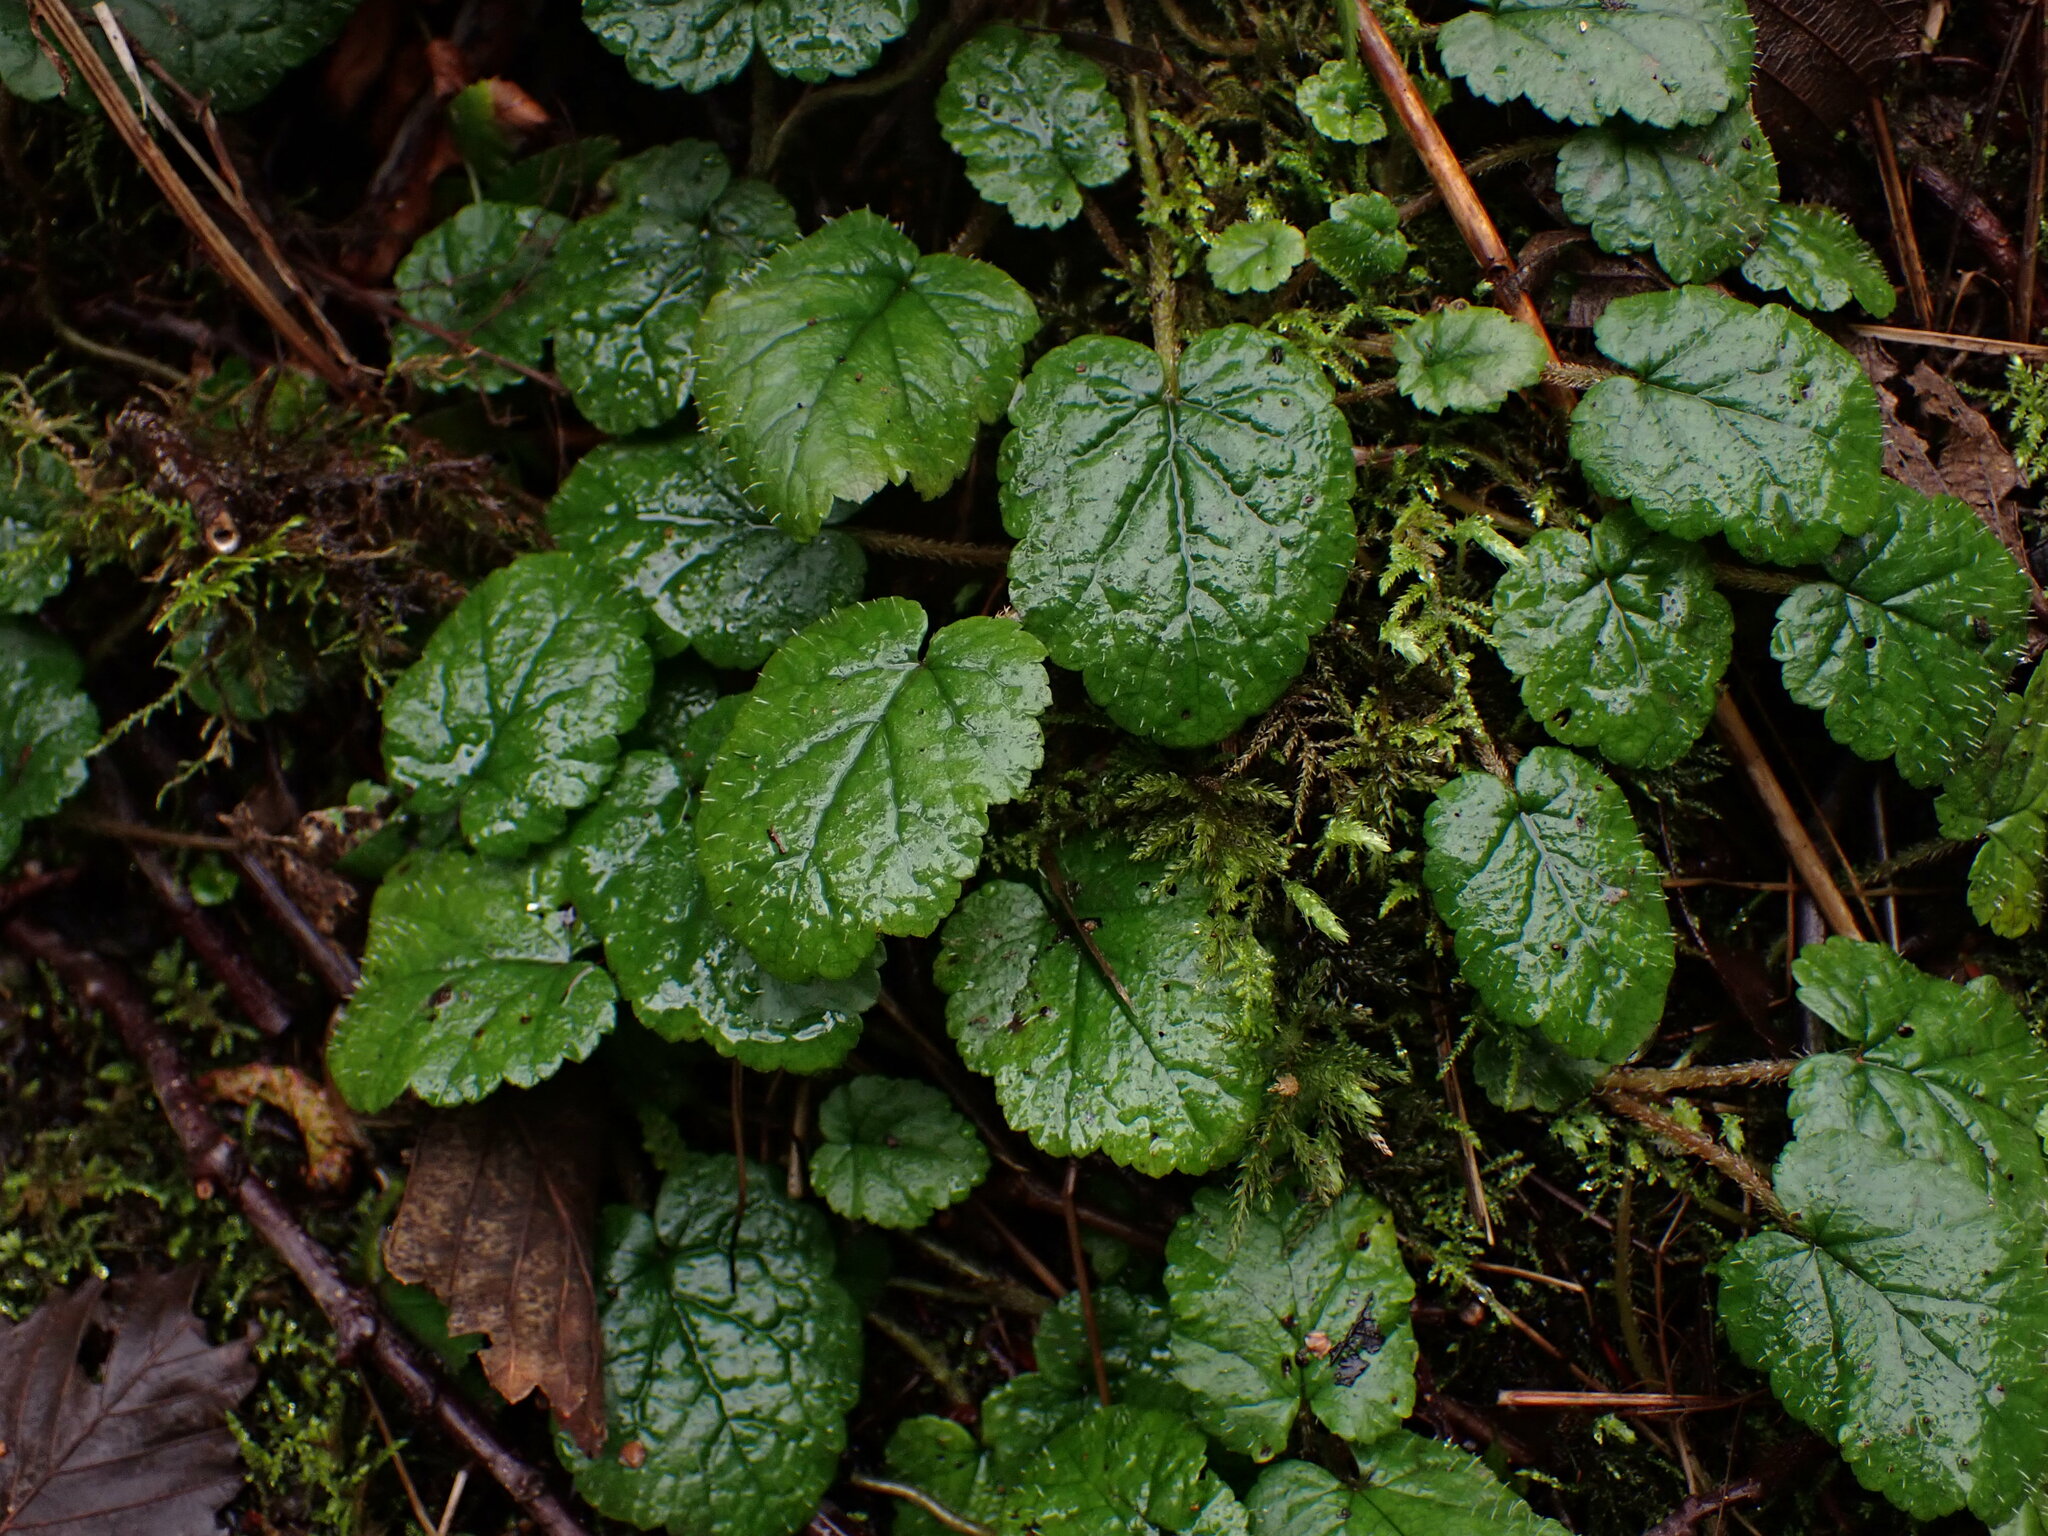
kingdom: Plantae
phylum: Tracheophyta
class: Magnoliopsida
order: Saxifragales
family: Saxifragaceae
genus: Brewerimitella
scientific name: Brewerimitella ovalis
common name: Coastal bishop's-cap
